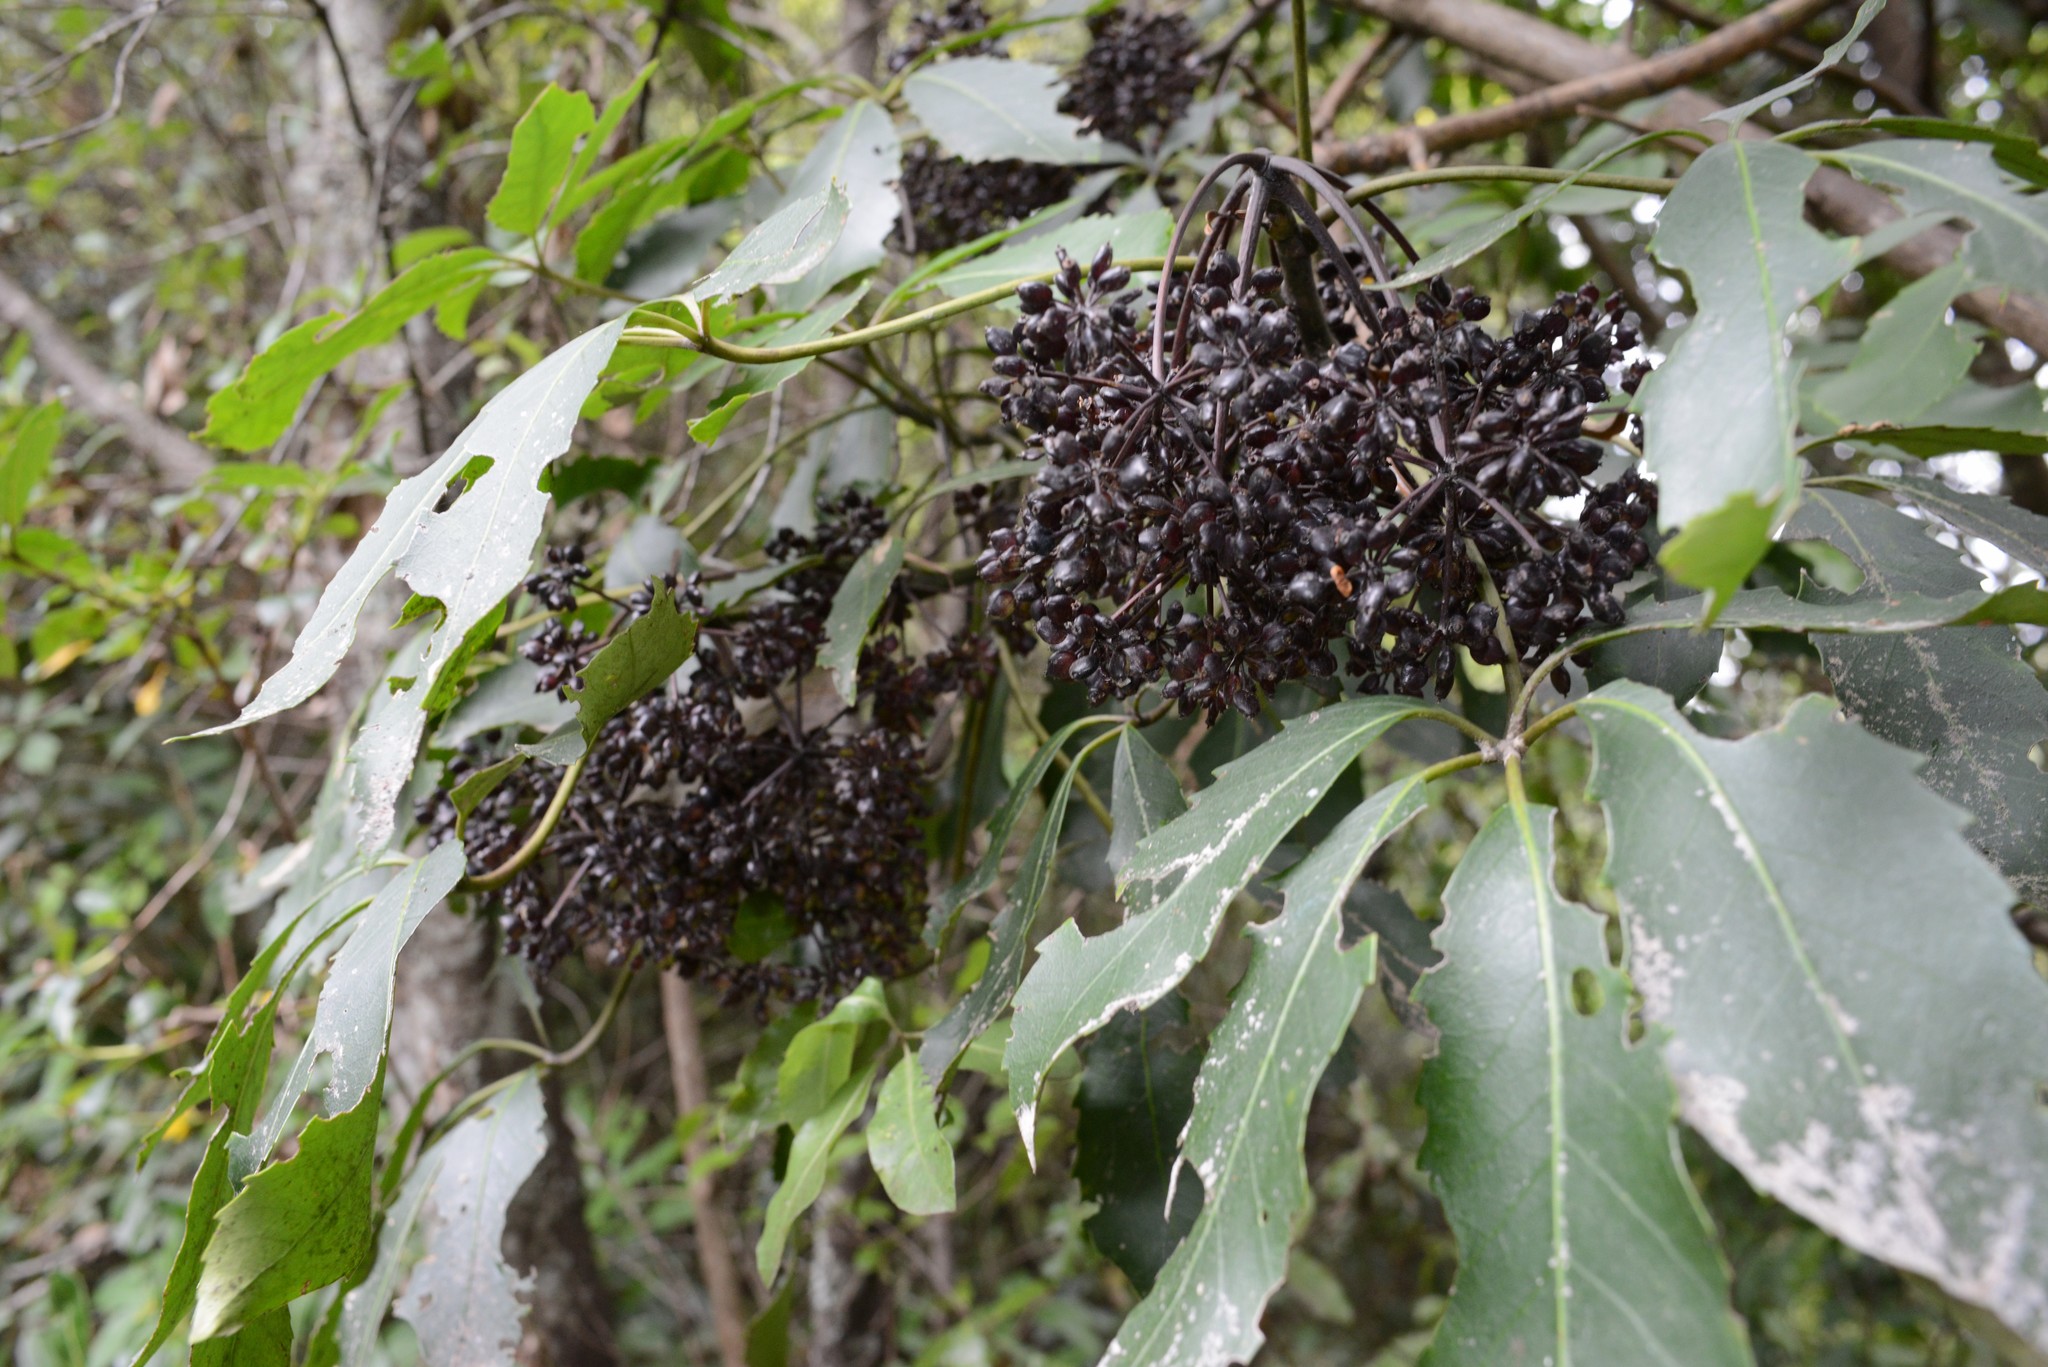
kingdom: Plantae
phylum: Tracheophyta
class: Magnoliopsida
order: Apiales
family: Araliaceae
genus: Neopanax
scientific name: Neopanax arboreus
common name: Five-fingers
